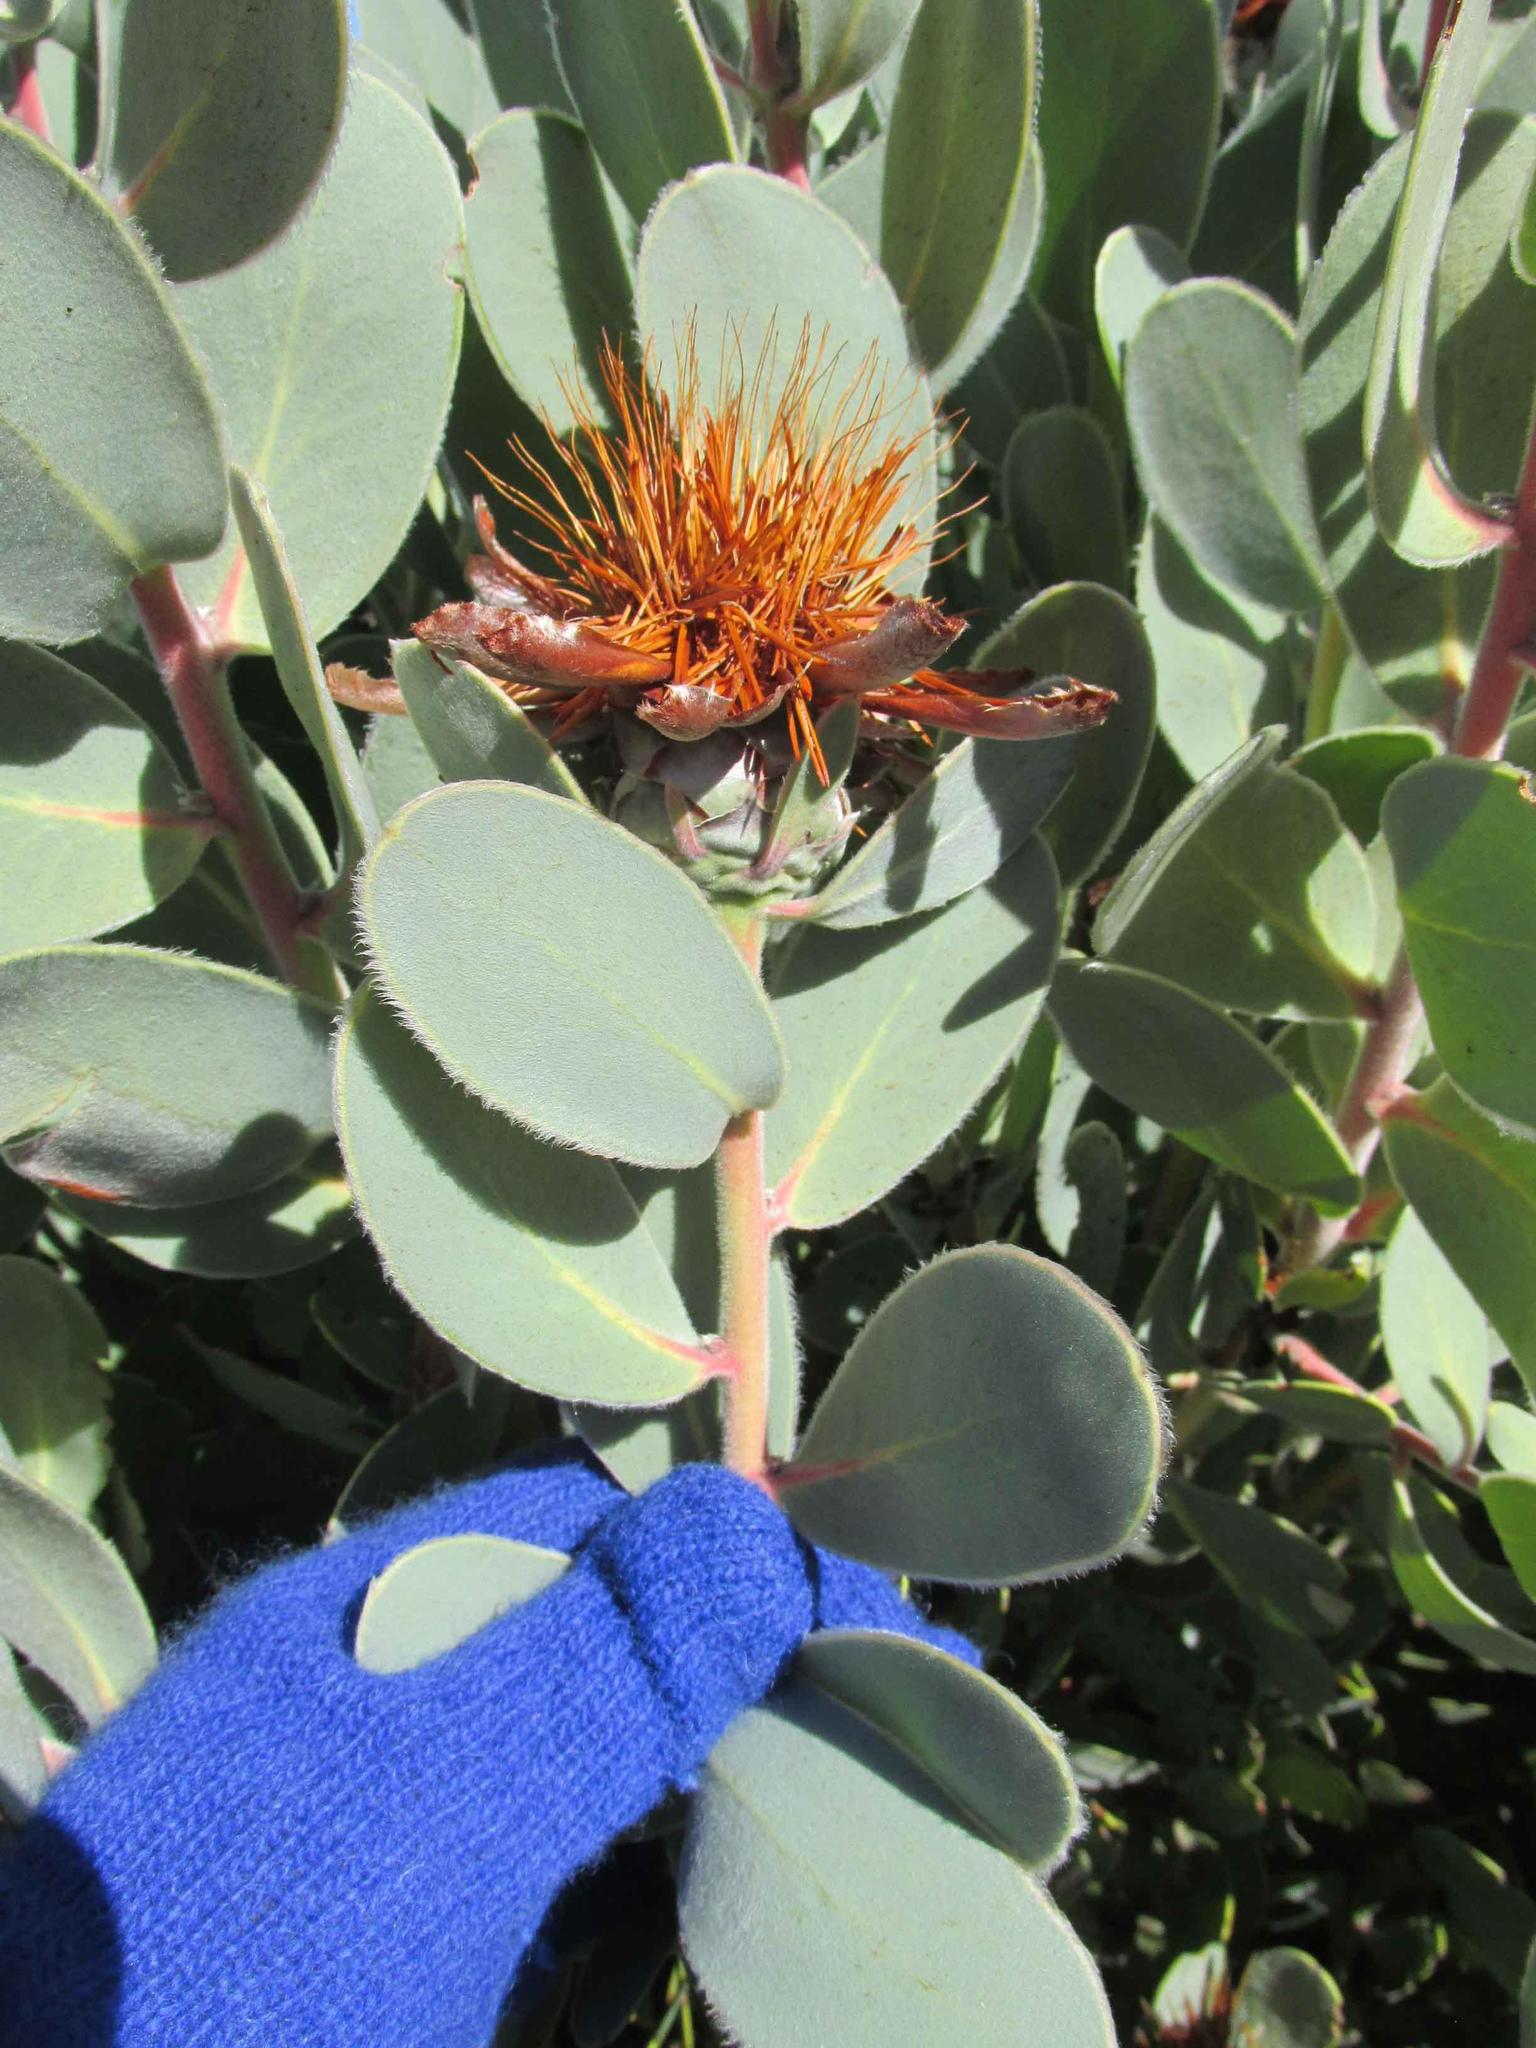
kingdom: Plantae
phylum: Tracheophyta
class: Magnoliopsida
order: Proteales
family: Proteaceae
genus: Protea
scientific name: Protea punctata
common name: Water sugarbush
